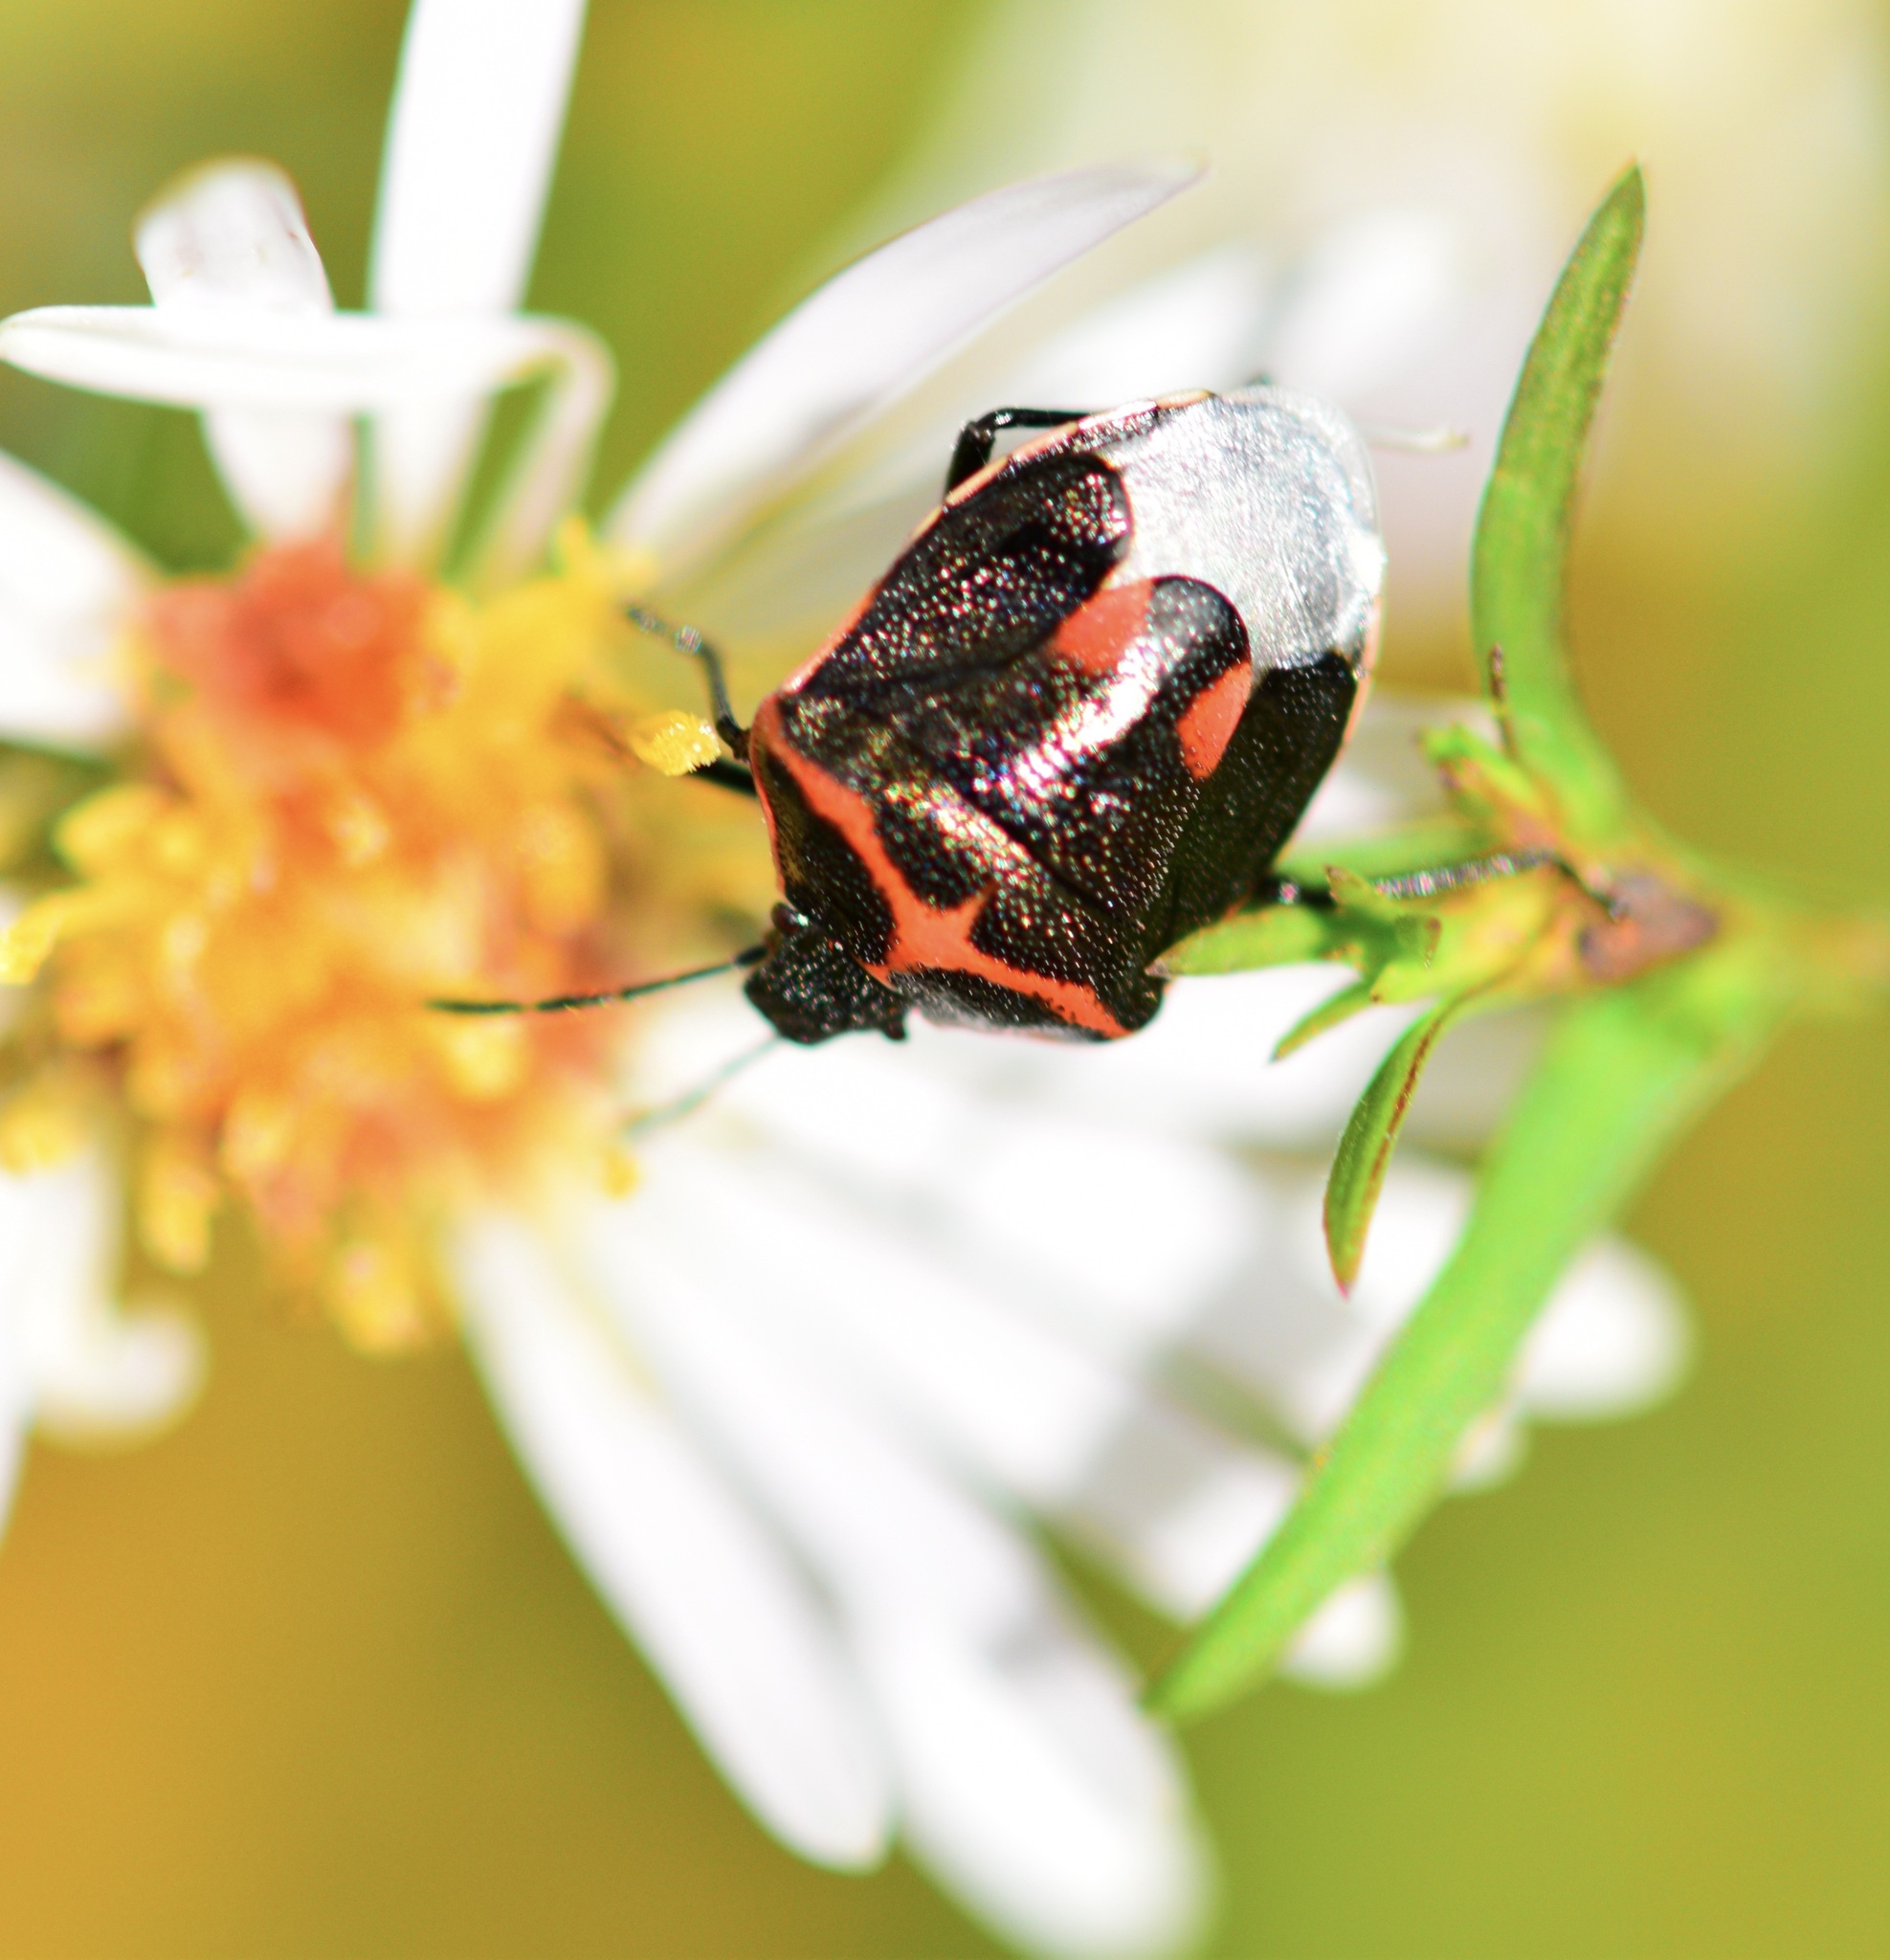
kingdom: Animalia
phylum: Arthropoda
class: Insecta
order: Hemiptera
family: Pentatomidae
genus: Cosmopepla
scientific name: Cosmopepla lintneriana
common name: Twice-stabbed stink bug
